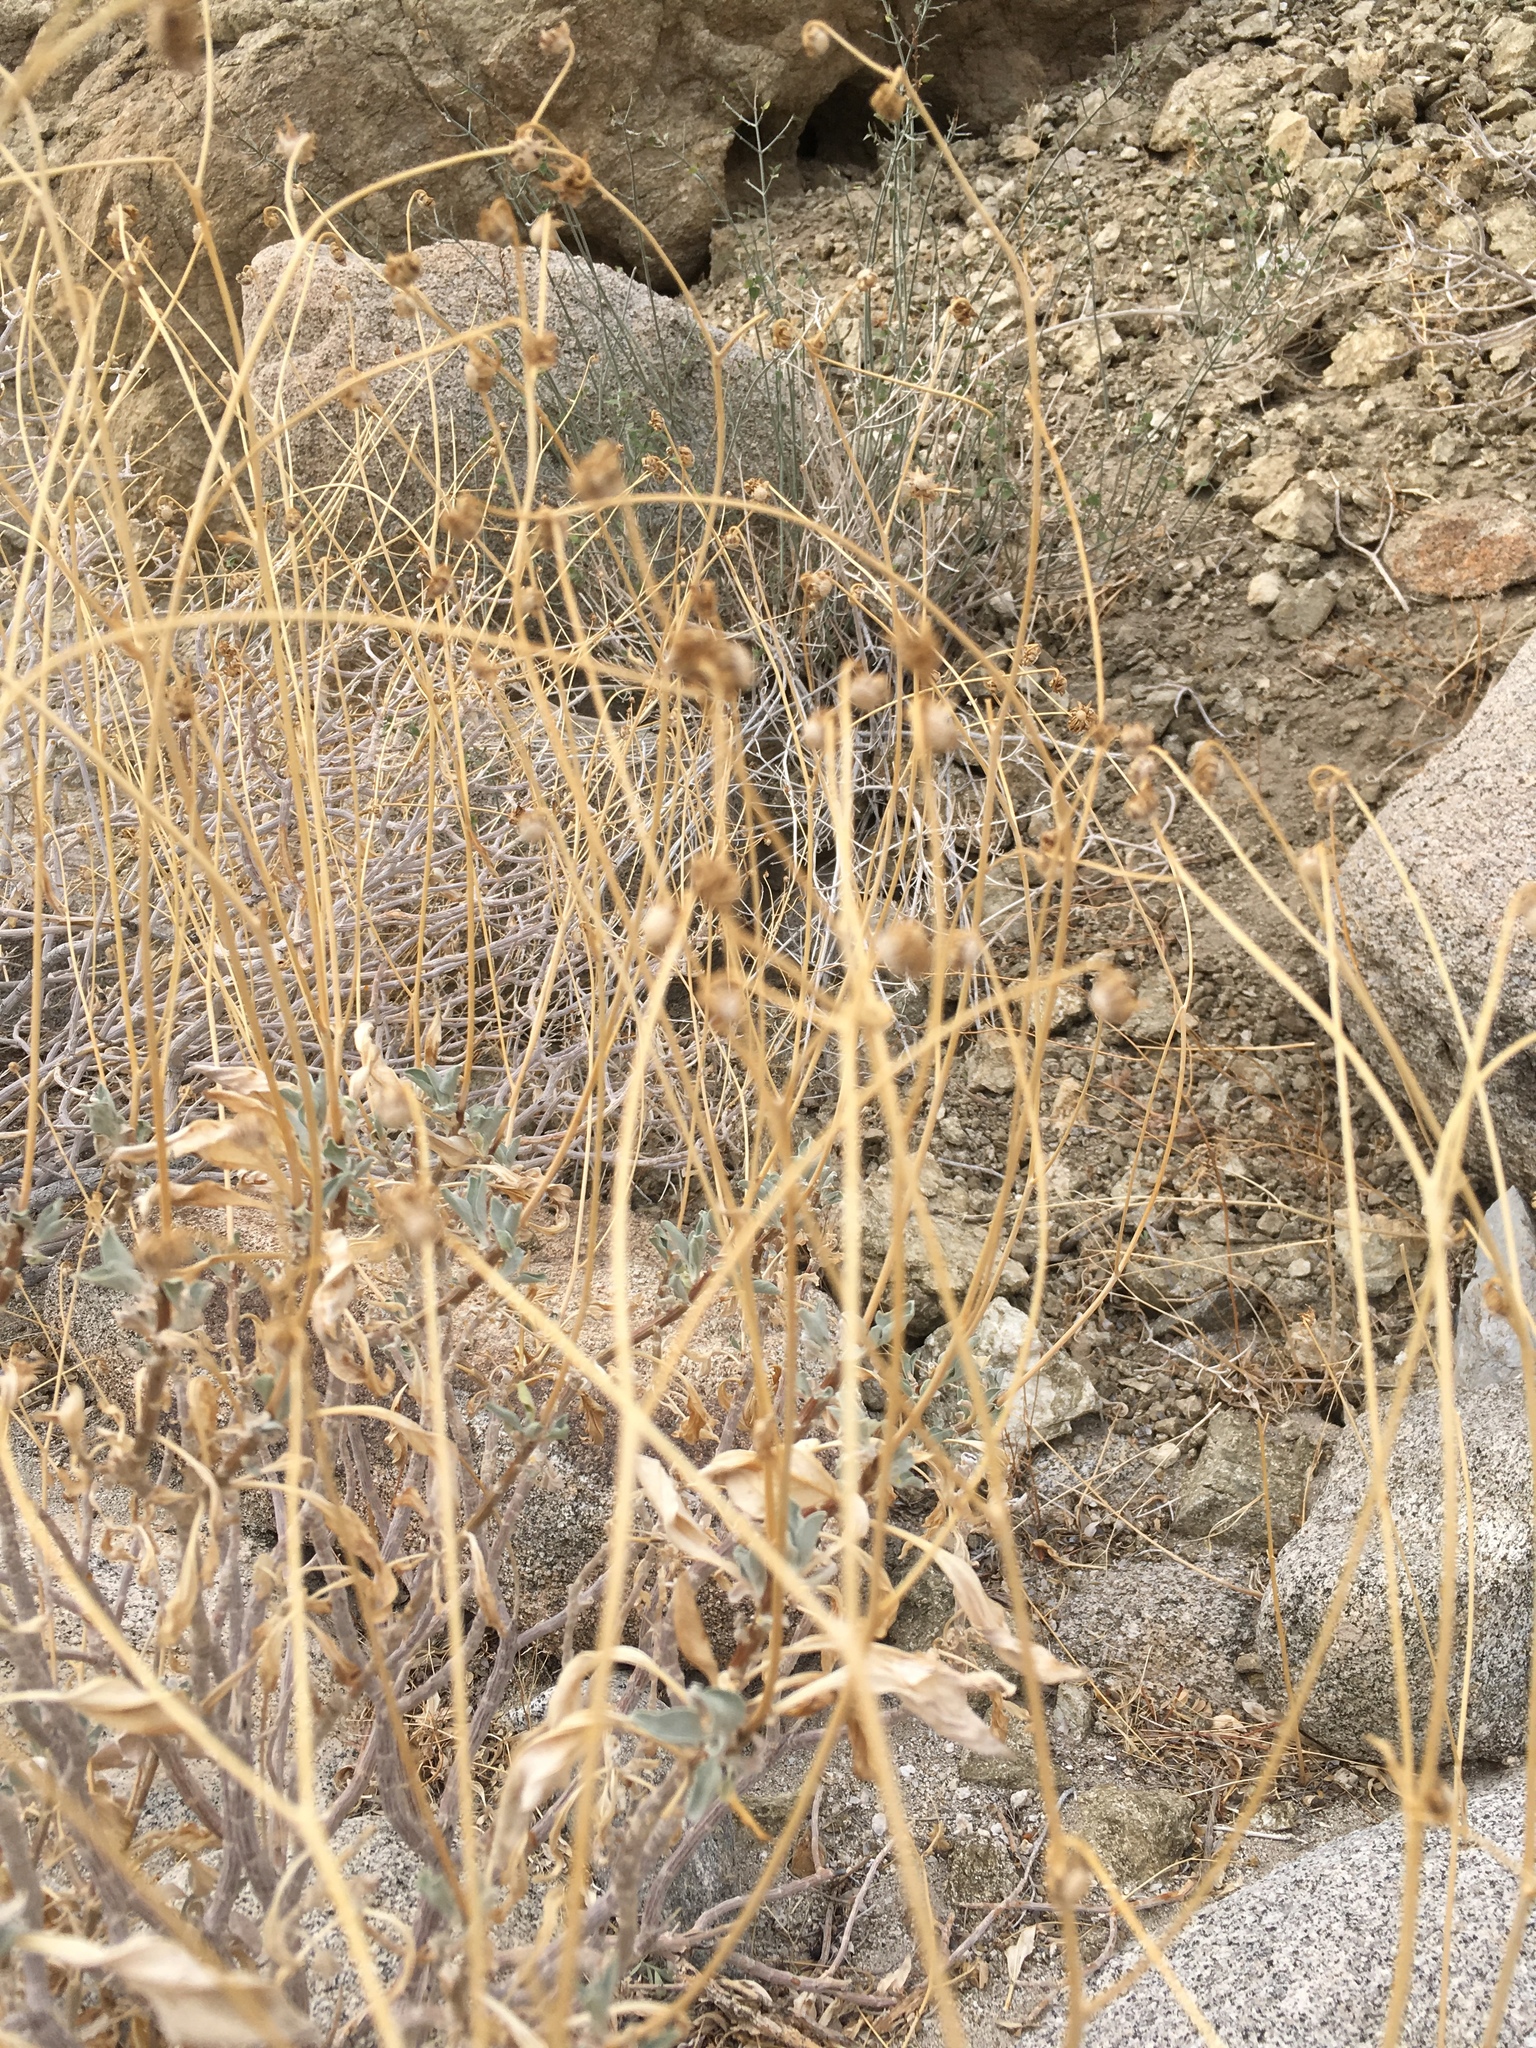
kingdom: Plantae
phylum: Tracheophyta
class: Magnoliopsida
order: Asterales
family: Asteraceae
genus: Encelia
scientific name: Encelia farinosa
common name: Brittlebush
